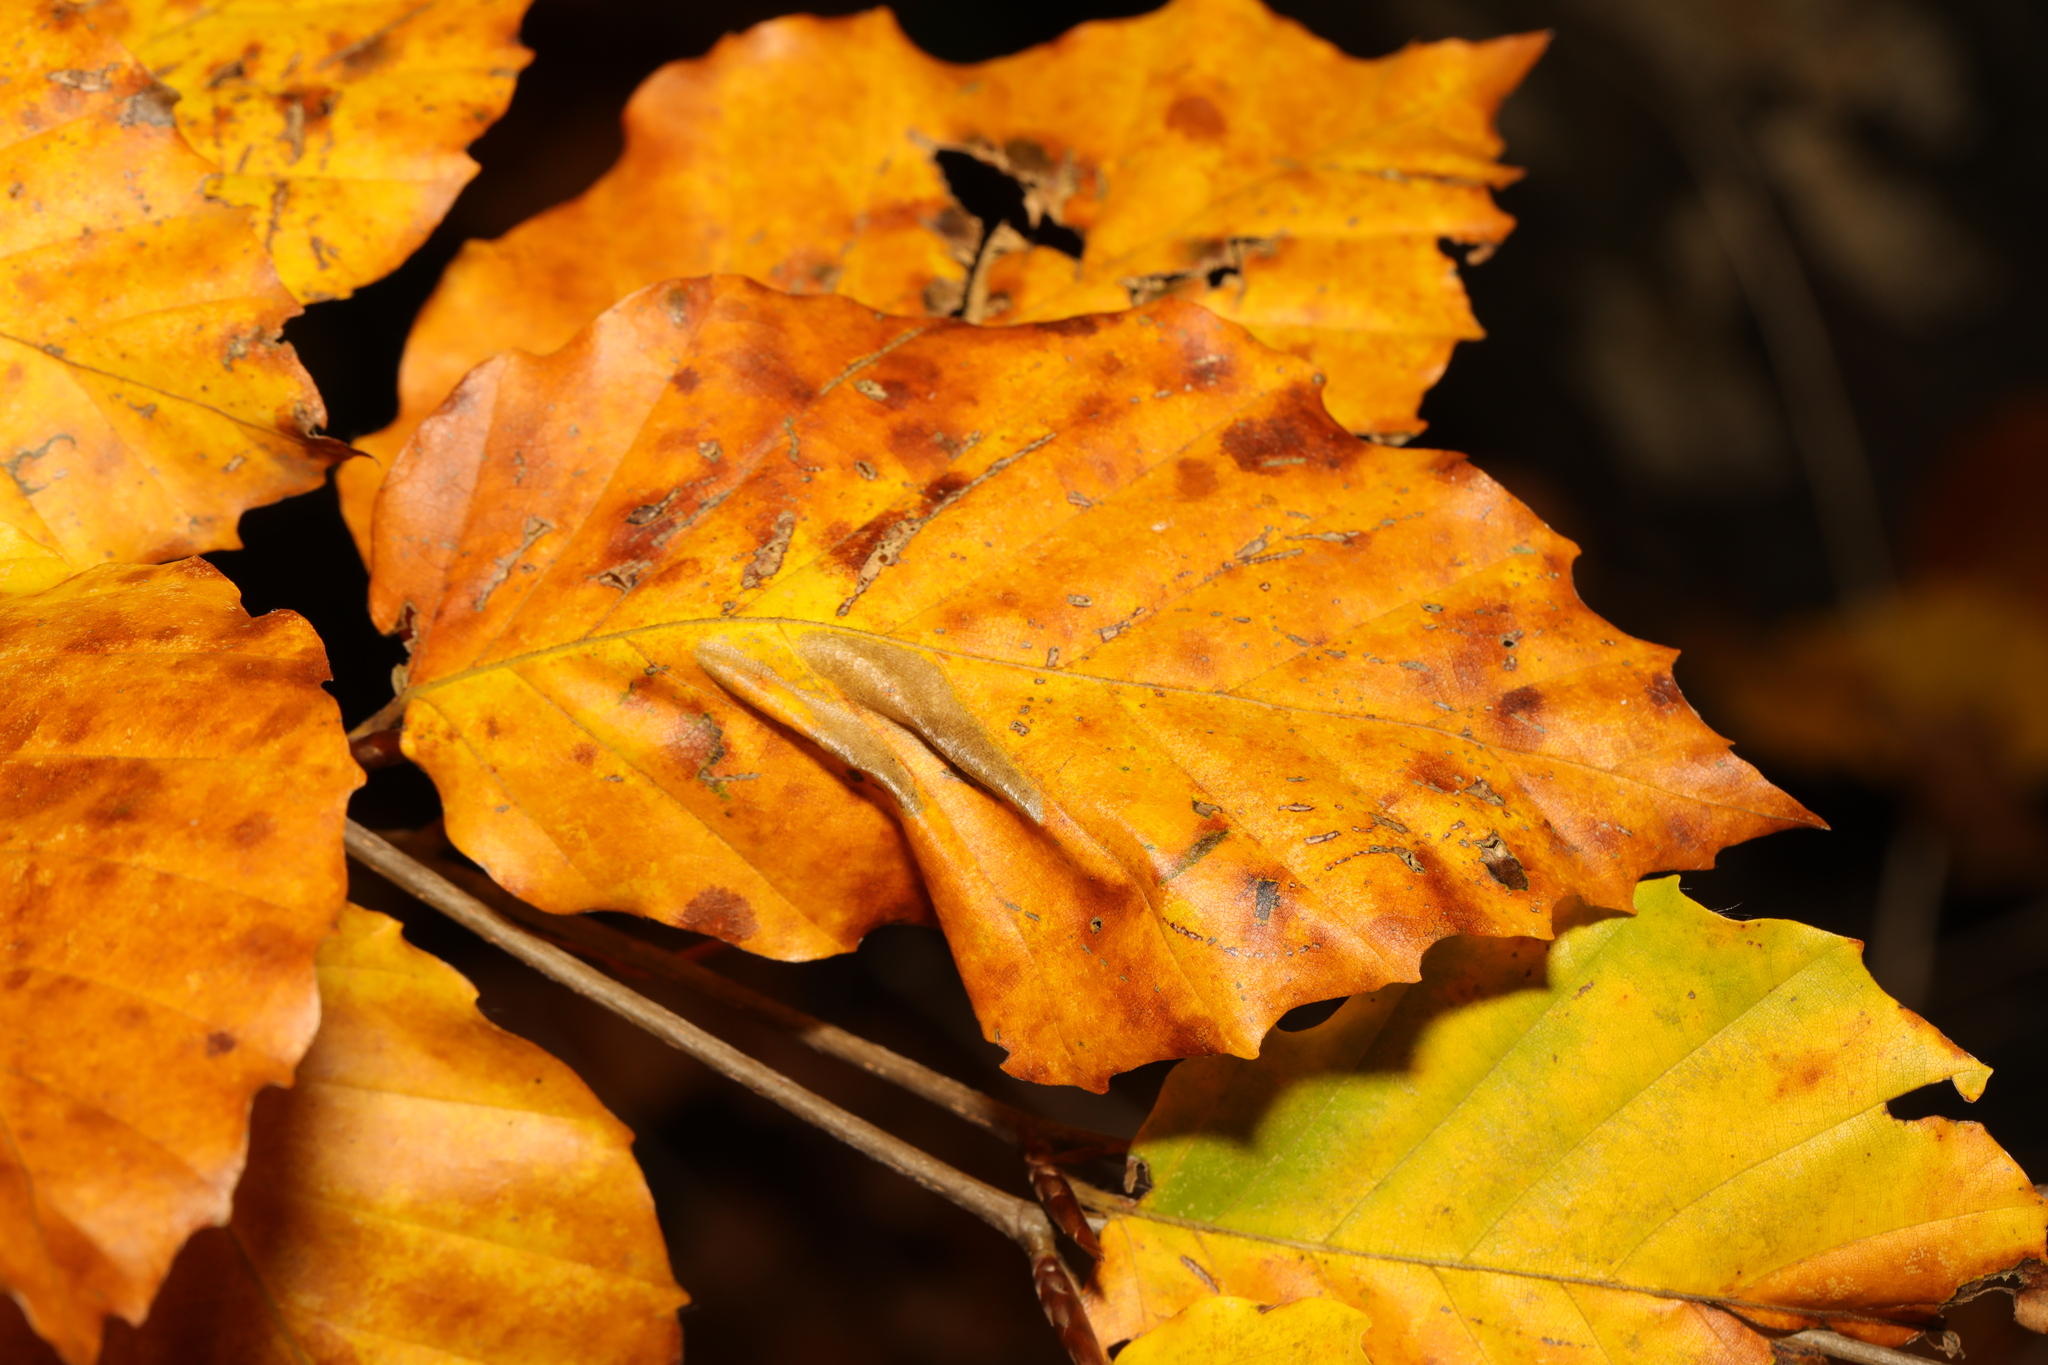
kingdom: Plantae
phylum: Tracheophyta
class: Magnoliopsida
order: Fagales
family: Fagaceae
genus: Fagus
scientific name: Fagus sylvatica
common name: Beech
